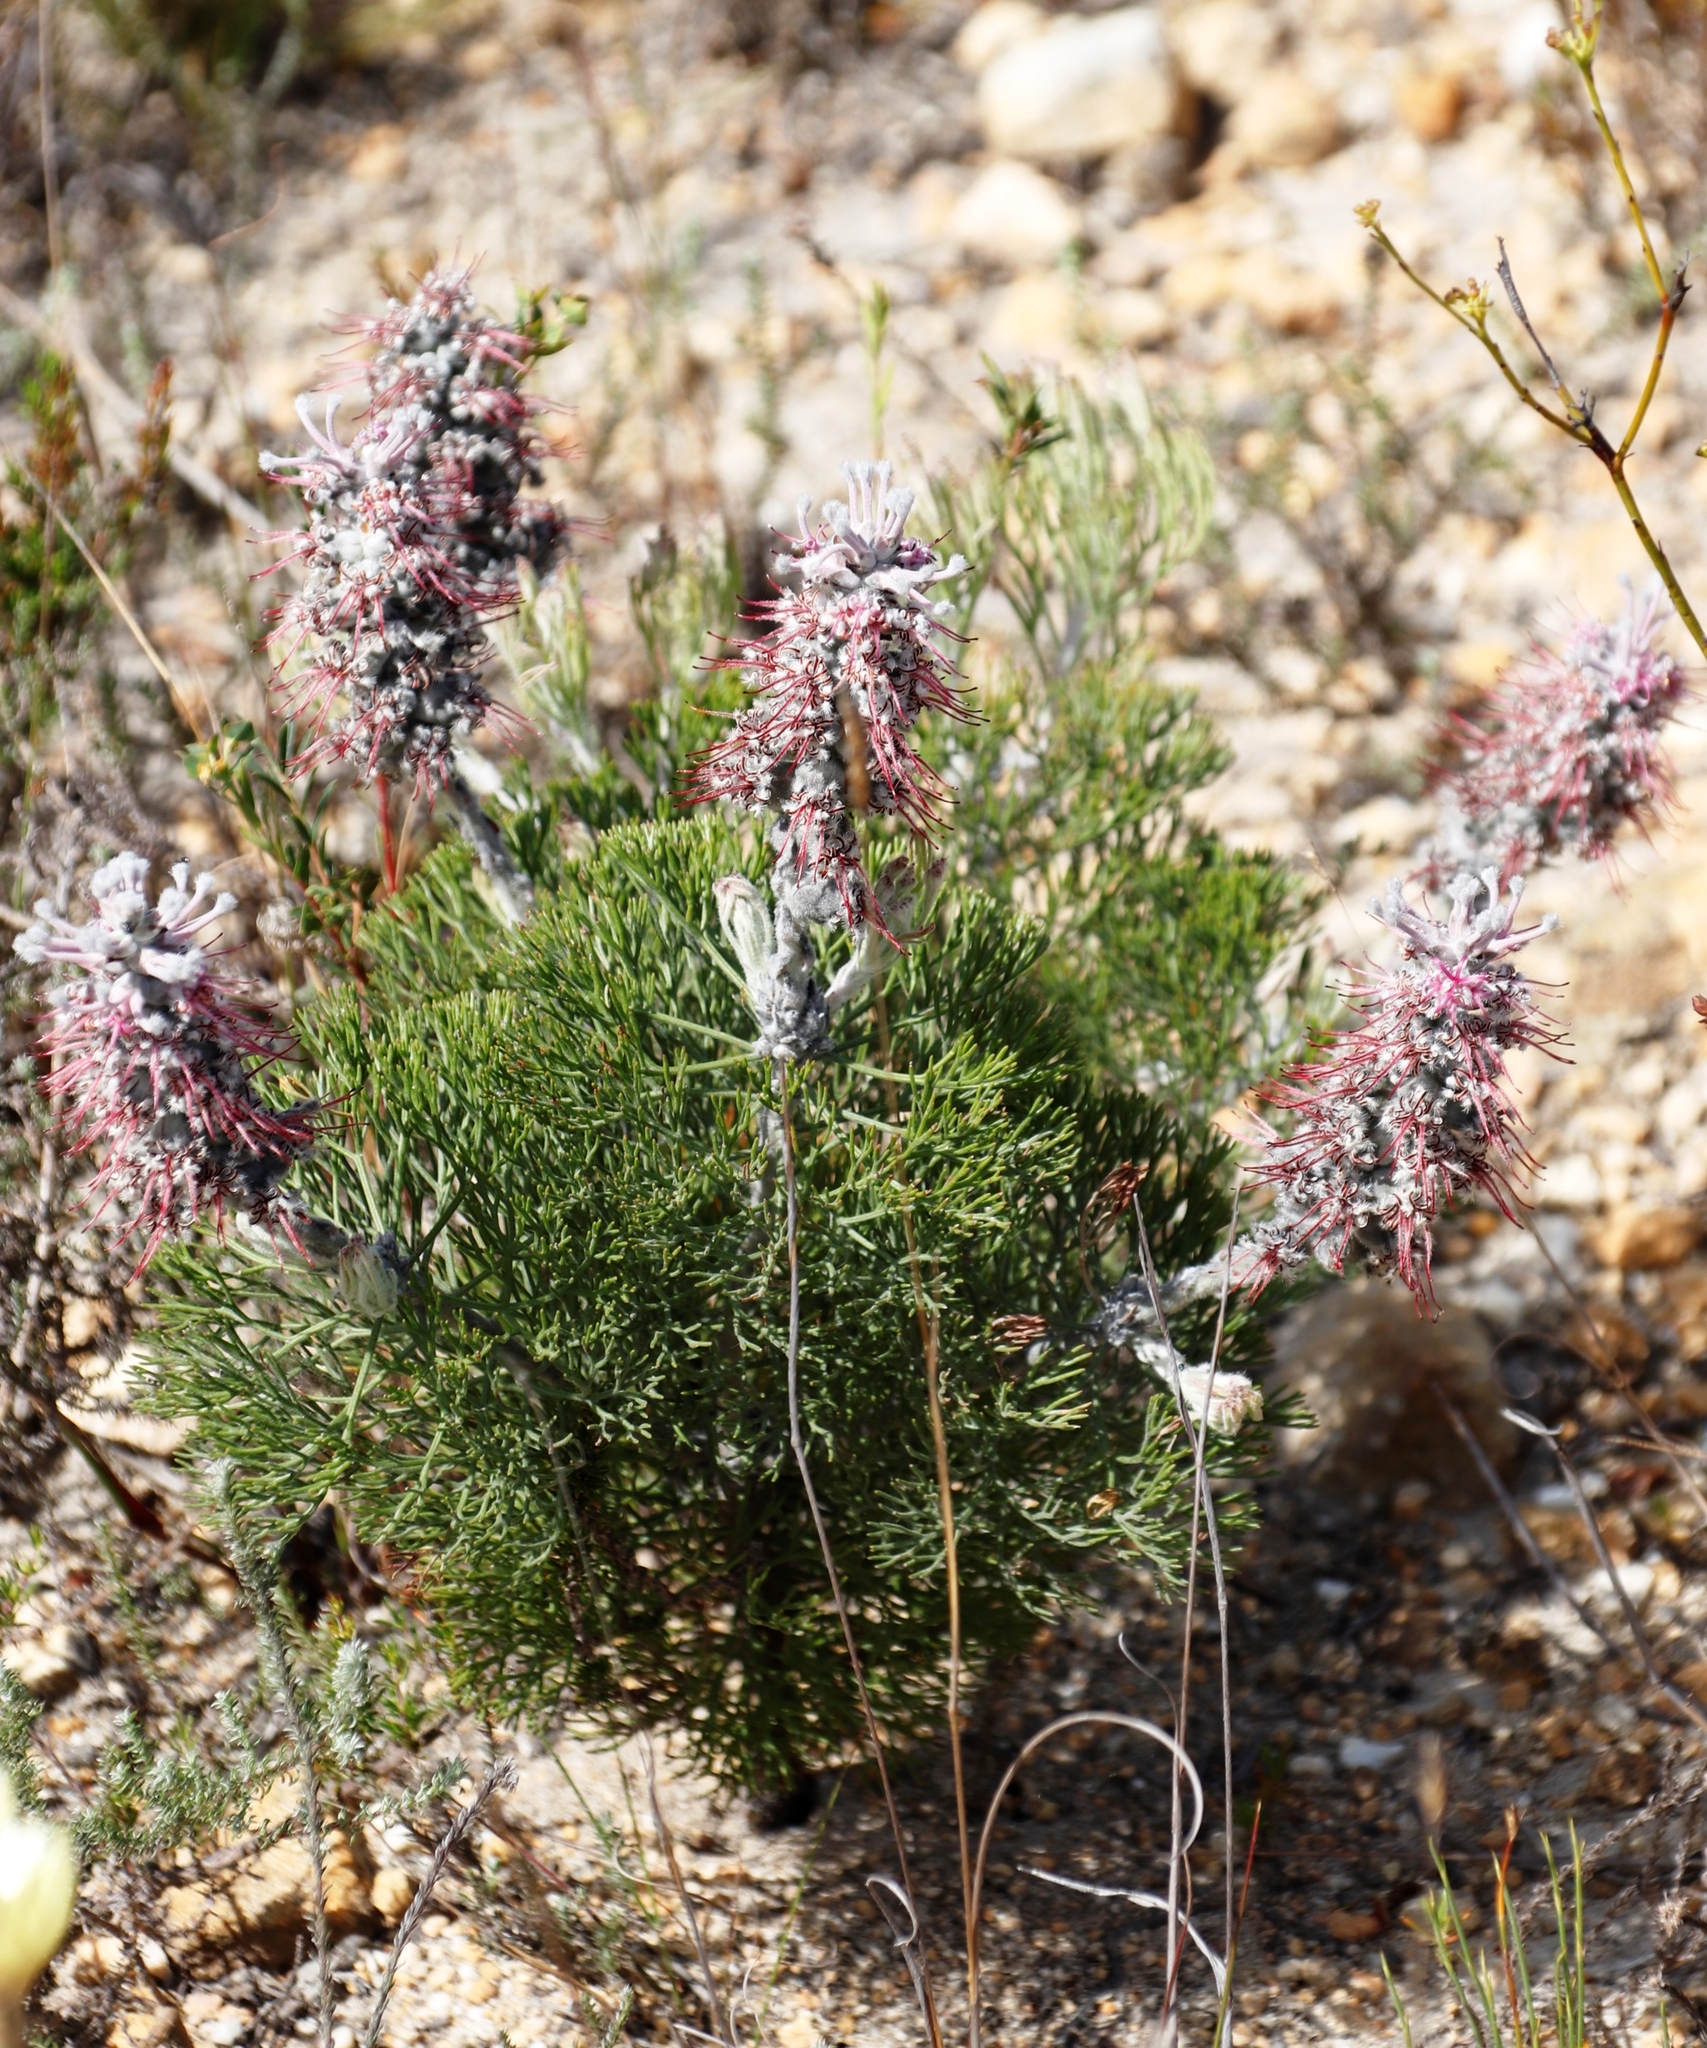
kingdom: Plantae
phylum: Tracheophyta
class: Magnoliopsida
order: Proteales
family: Proteaceae
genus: Paranomus
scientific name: Paranomus bolusii
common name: Overberg sceptre
